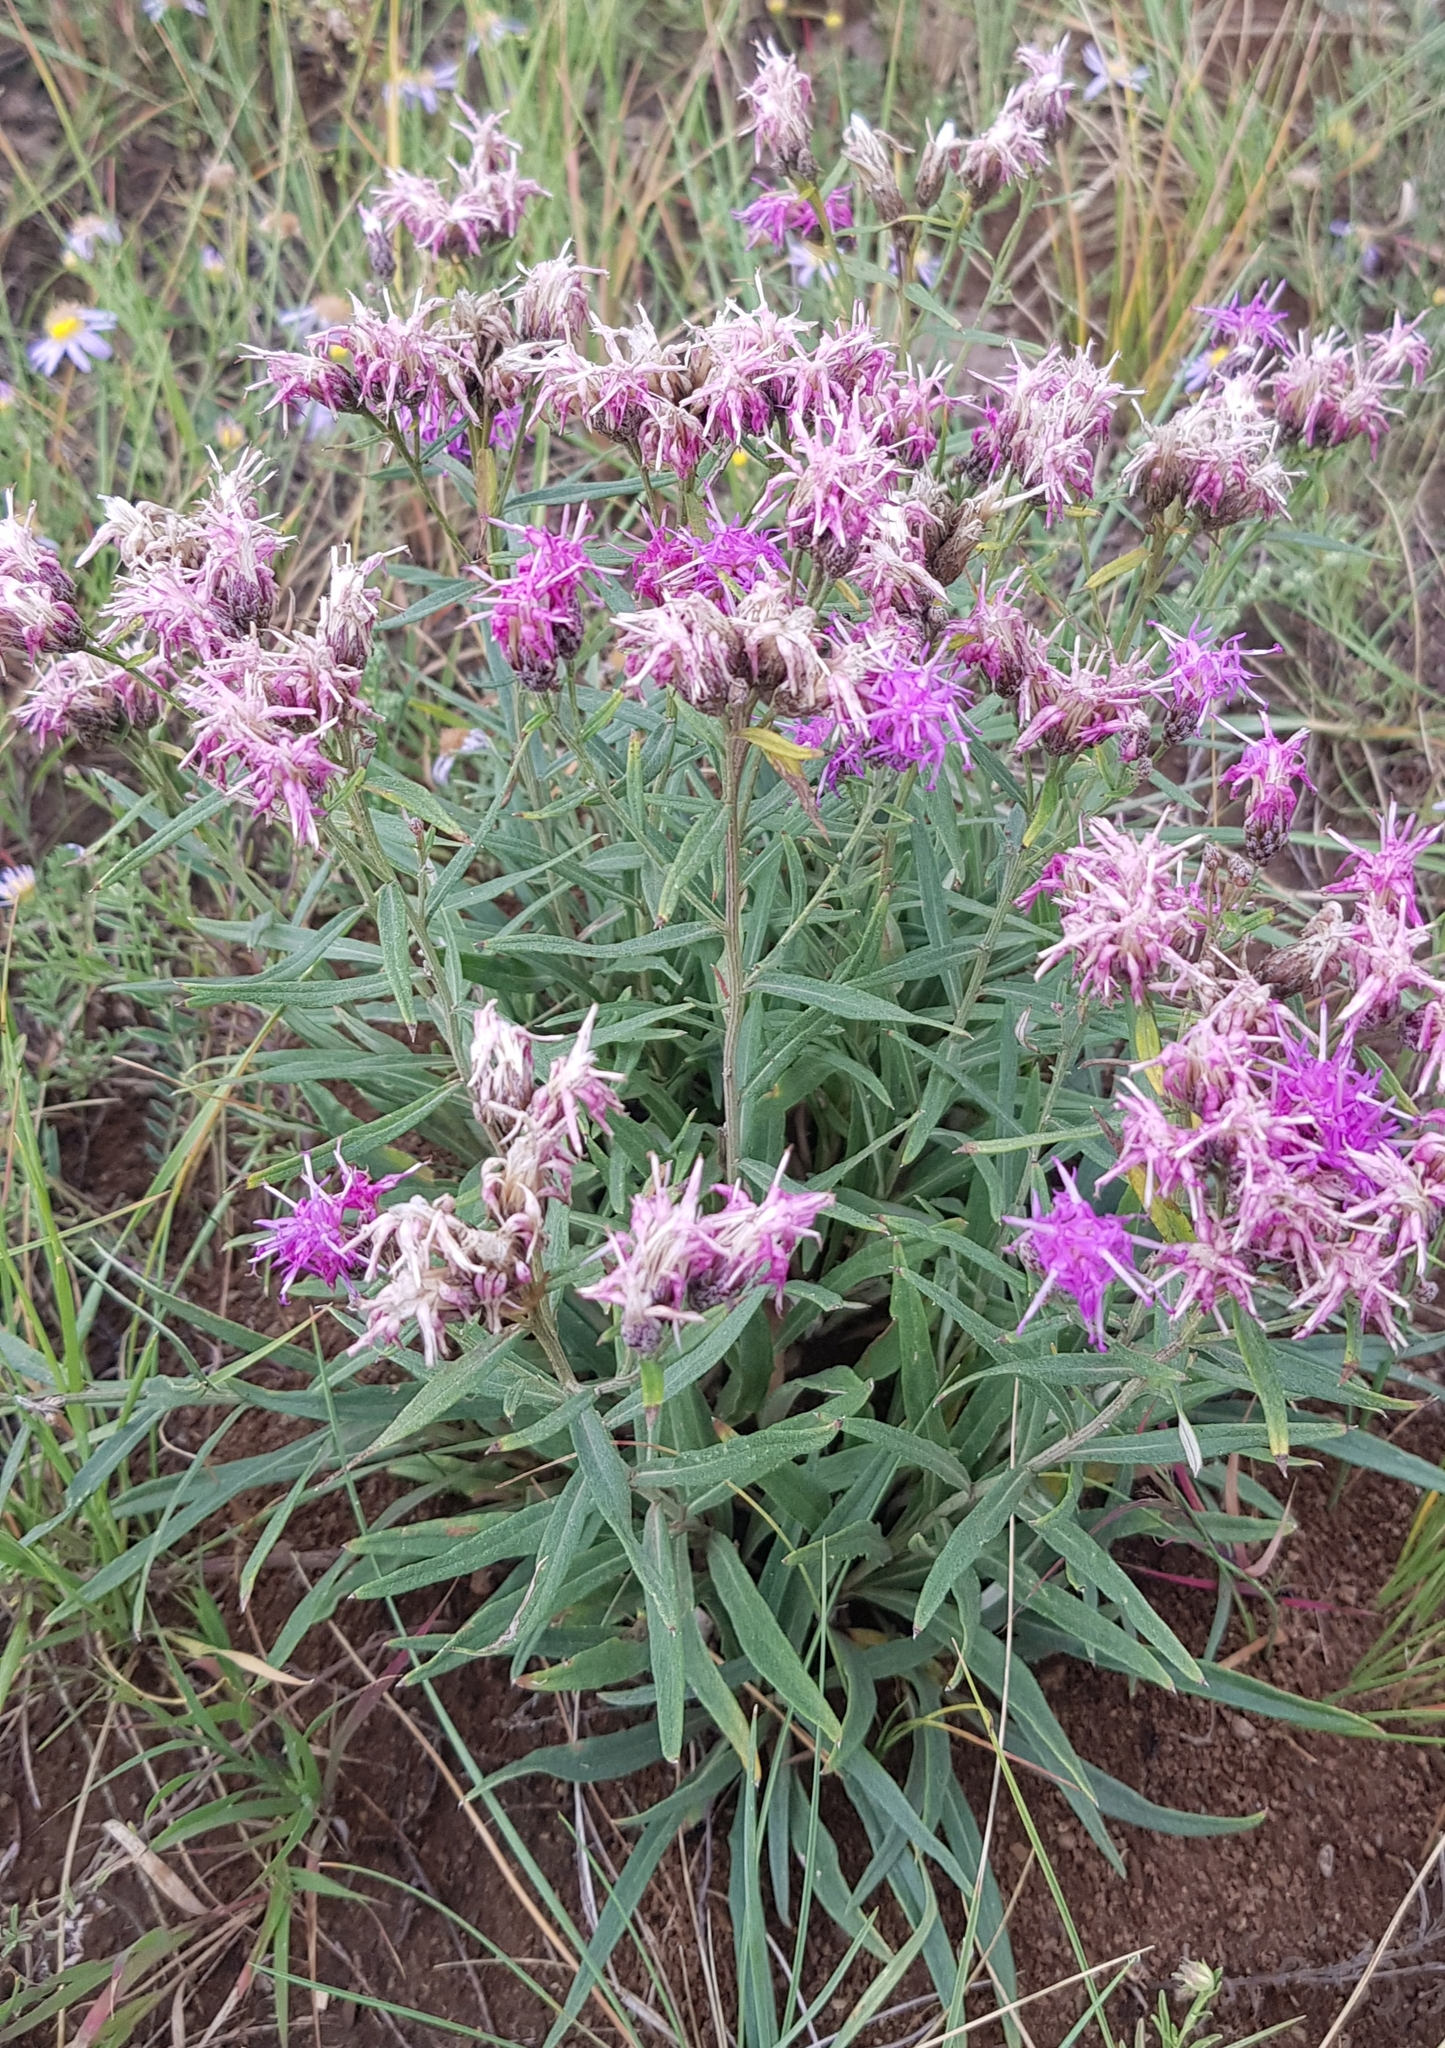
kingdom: Plantae
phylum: Tracheophyta
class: Magnoliopsida
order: Asterales
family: Asteraceae
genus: Saussurea
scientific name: Saussurea salicifolia
